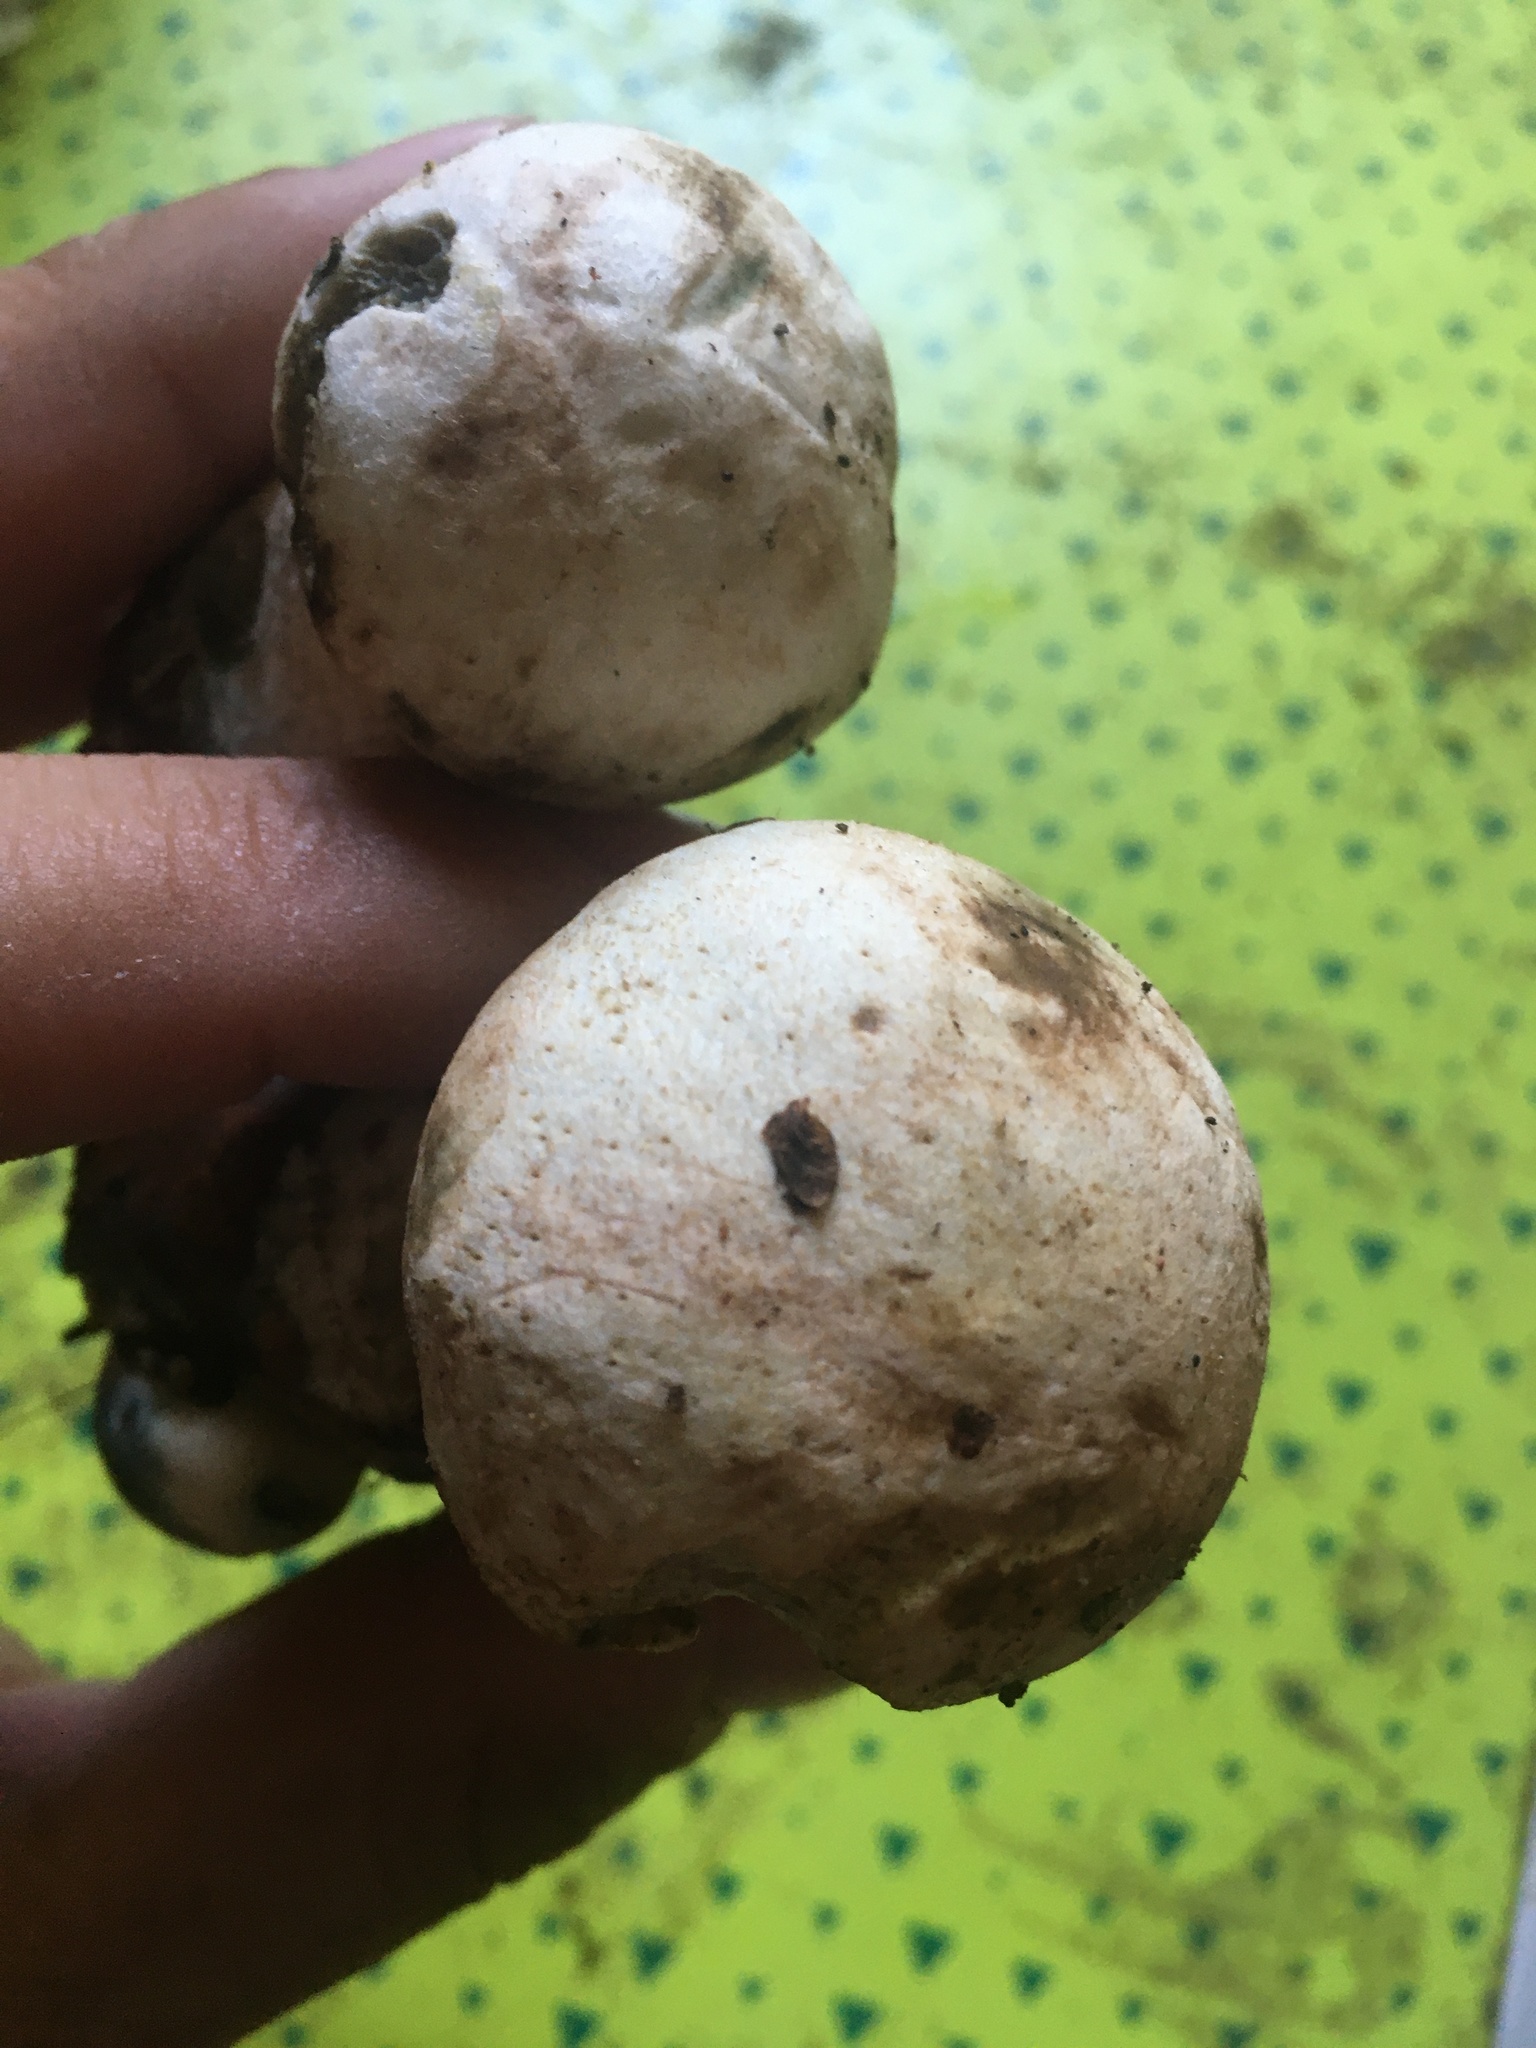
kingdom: Fungi
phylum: Basidiomycota
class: Agaricomycetes
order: Boletales
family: Boletaceae
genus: Leccinum
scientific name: Leccinum versipelle
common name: Orange birch bolete
